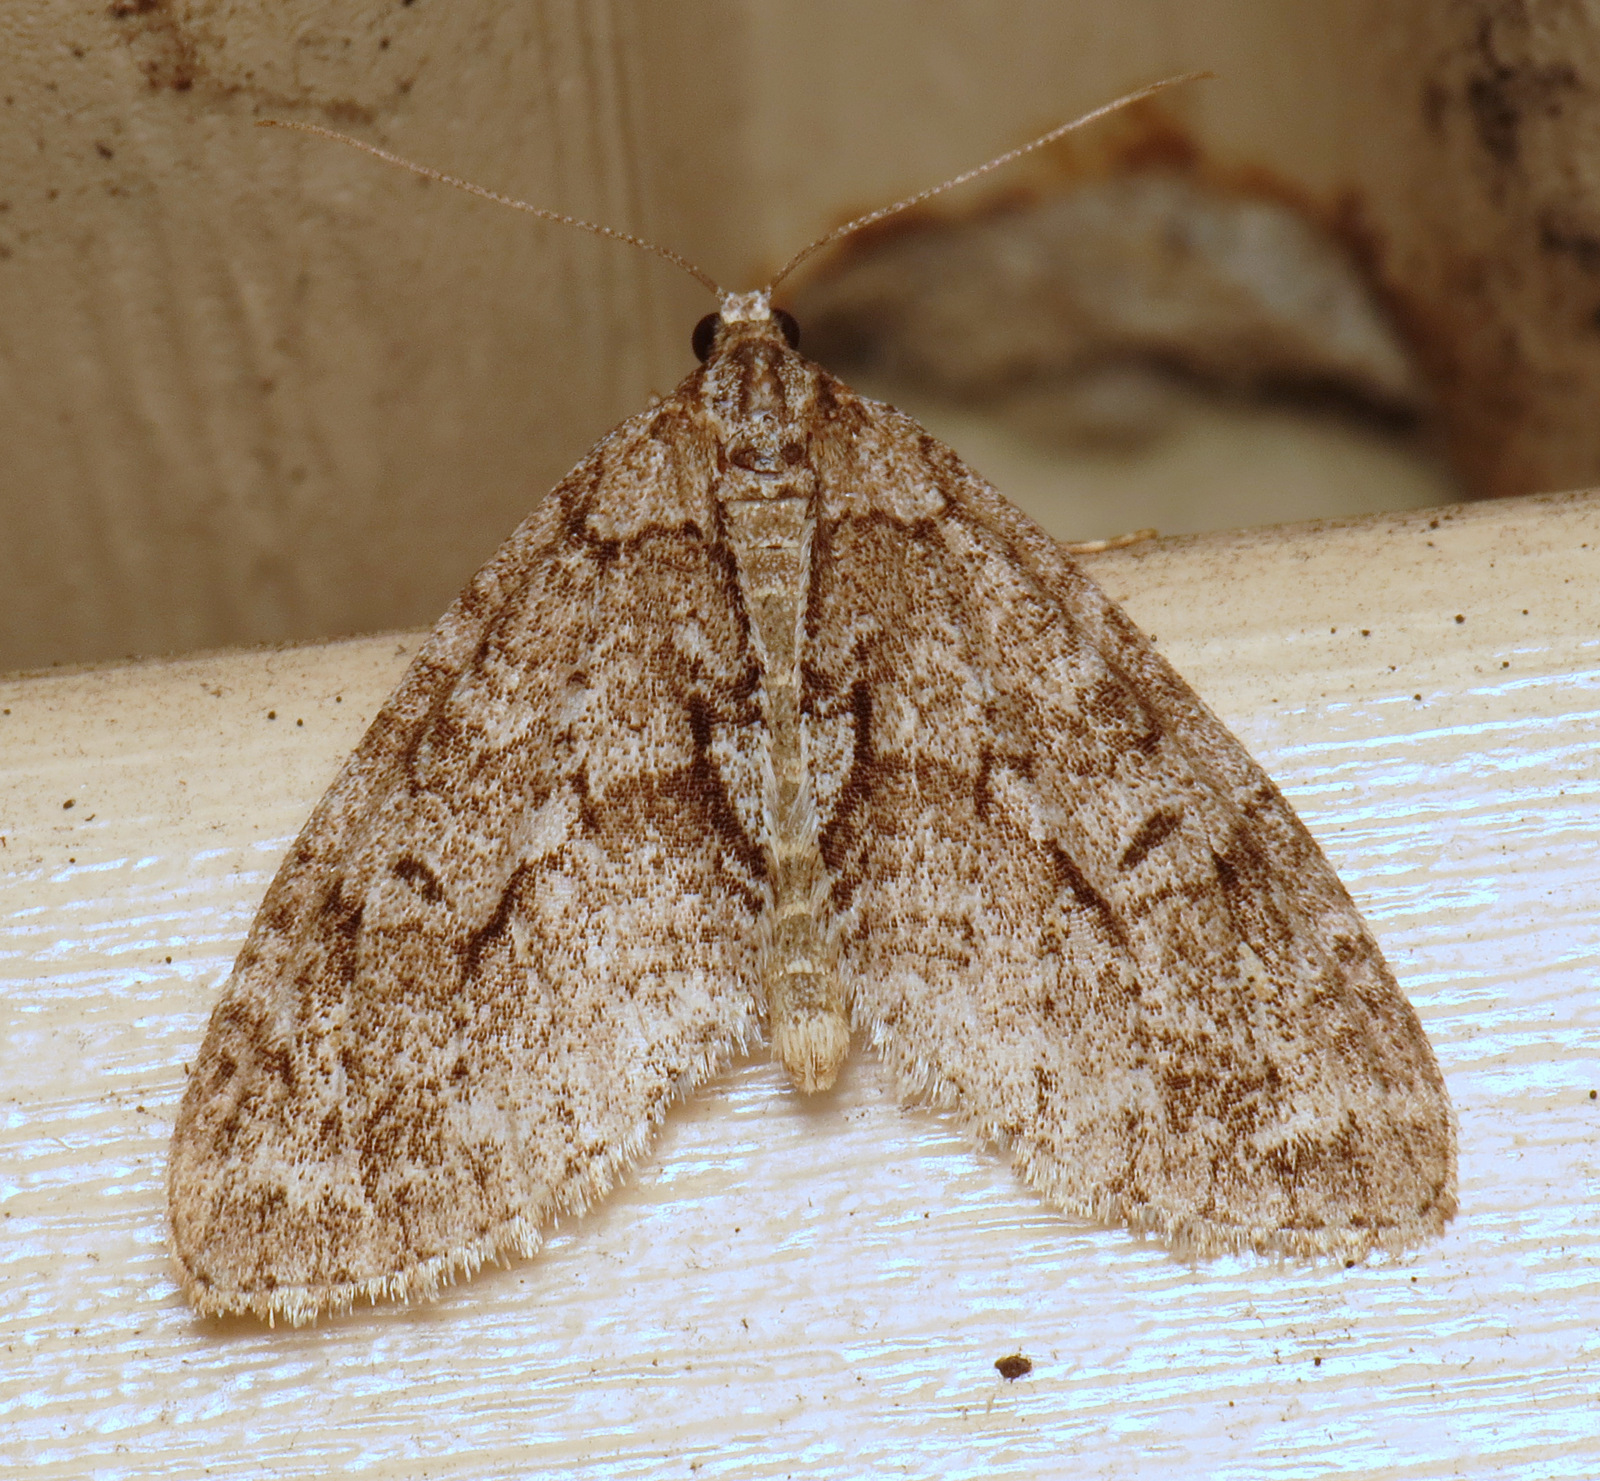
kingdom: Animalia
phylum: Arthropoda
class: Insecta
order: Lepidoptera
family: Geometridae
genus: Cladara
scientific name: Cladara limitaria
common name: Mottled gray carpet
